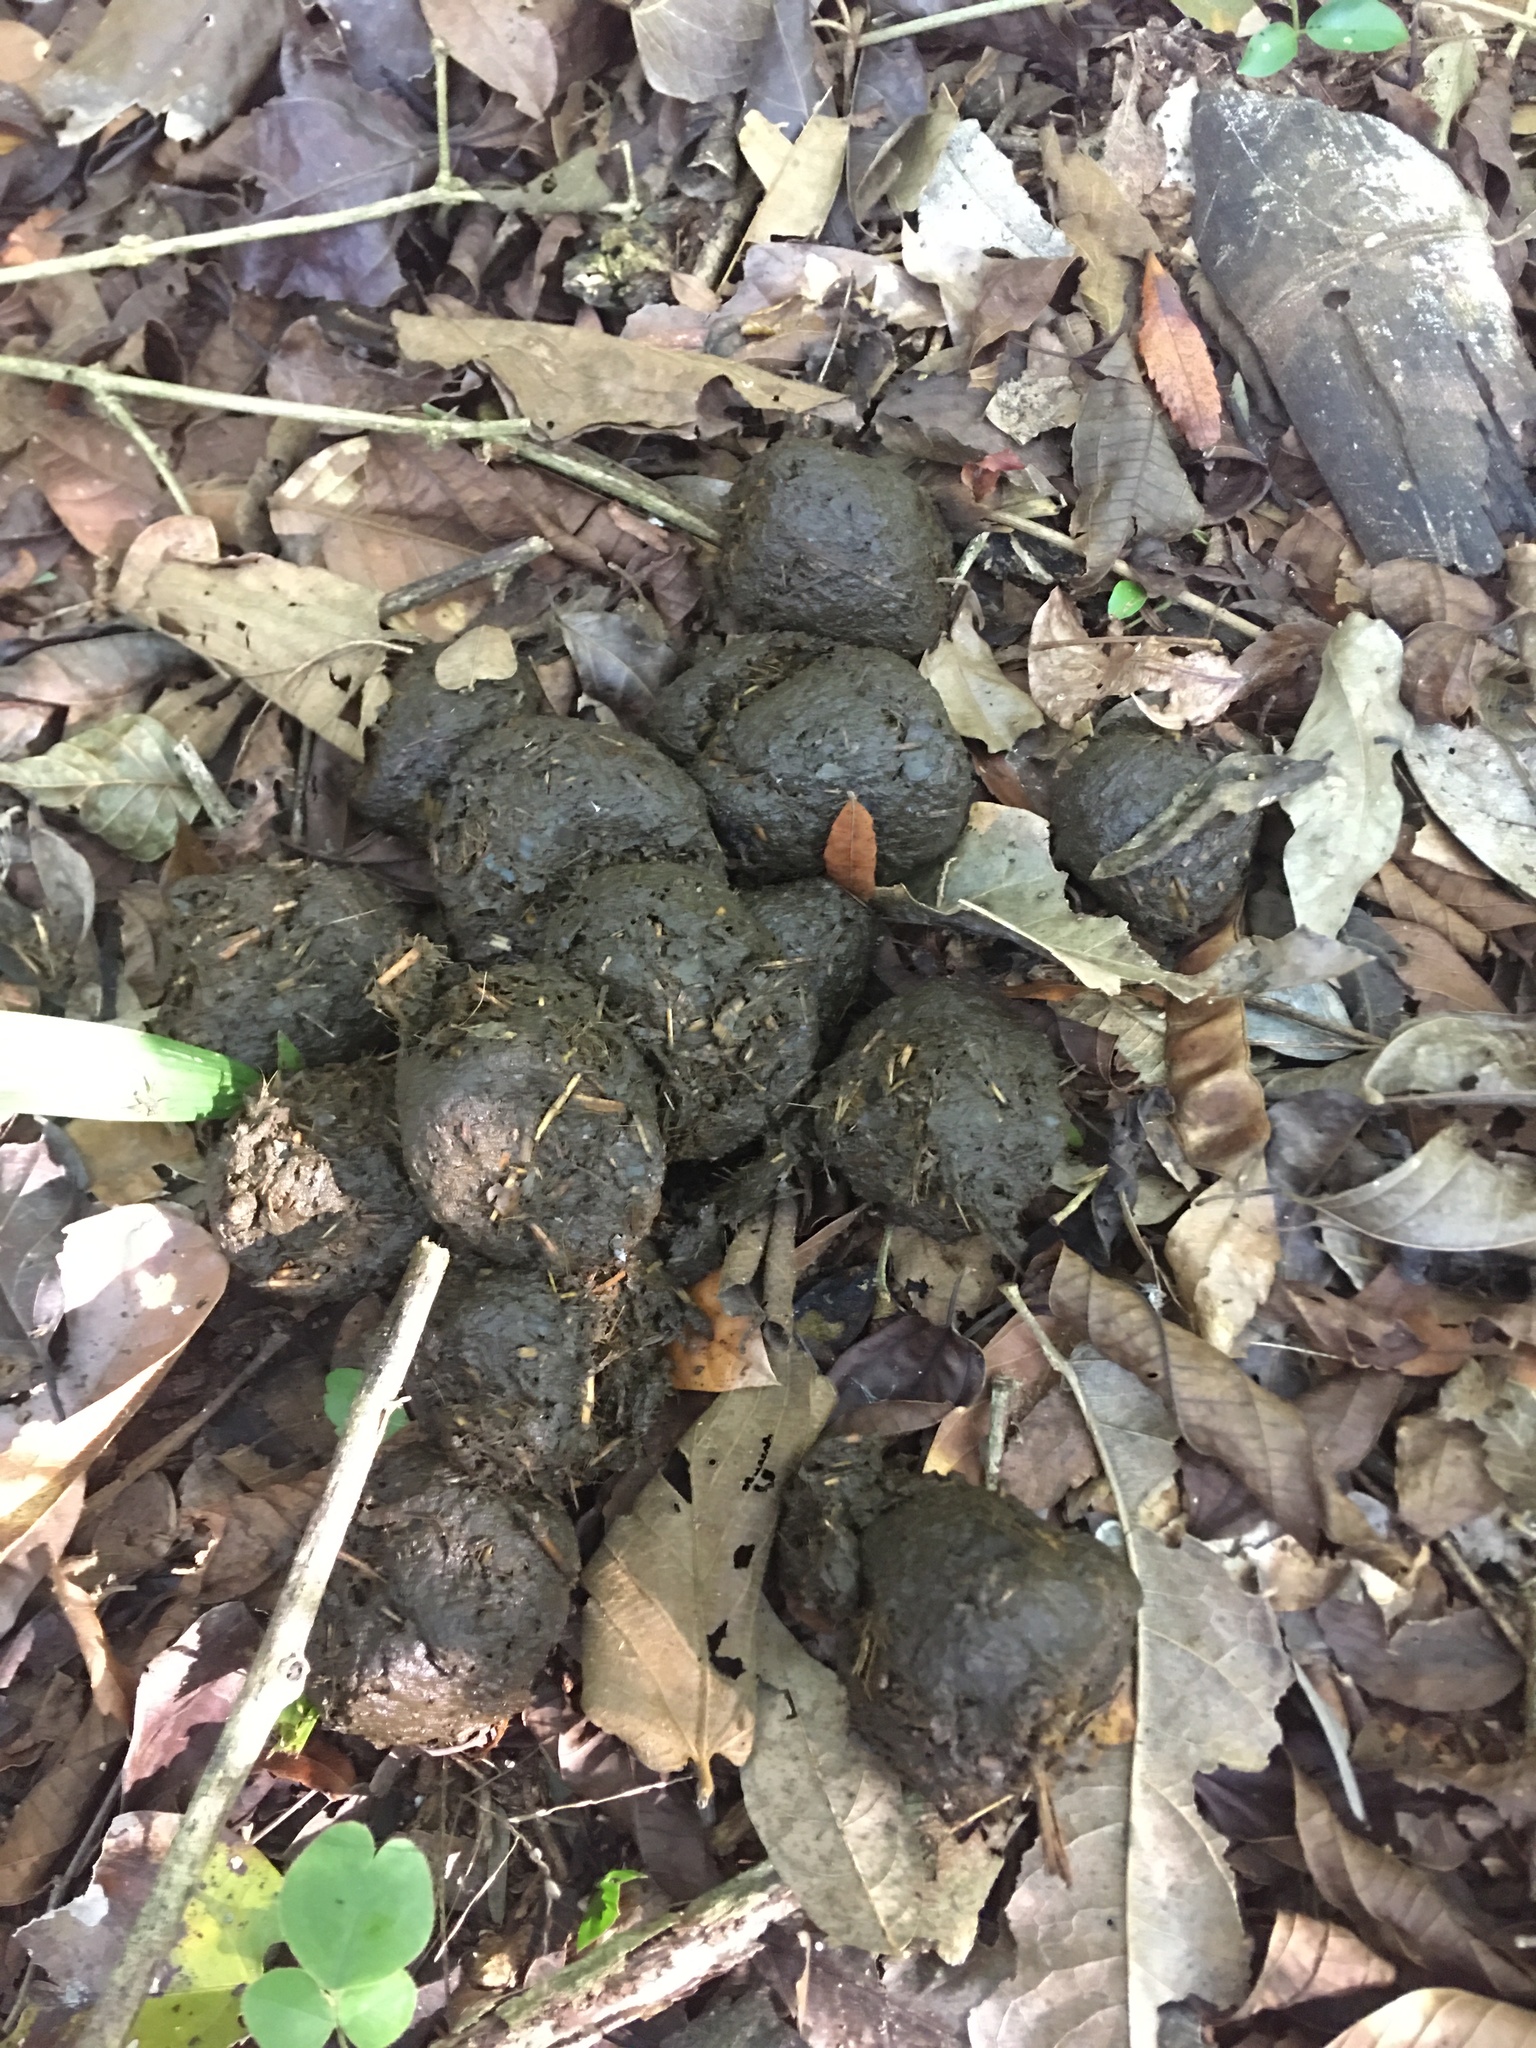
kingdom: Animalia
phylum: Chordata
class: Mammalia
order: Perissodactyla
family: Tapiridae
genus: Tapirus
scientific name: Tapirus terrestris
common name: Brazilian tapir
